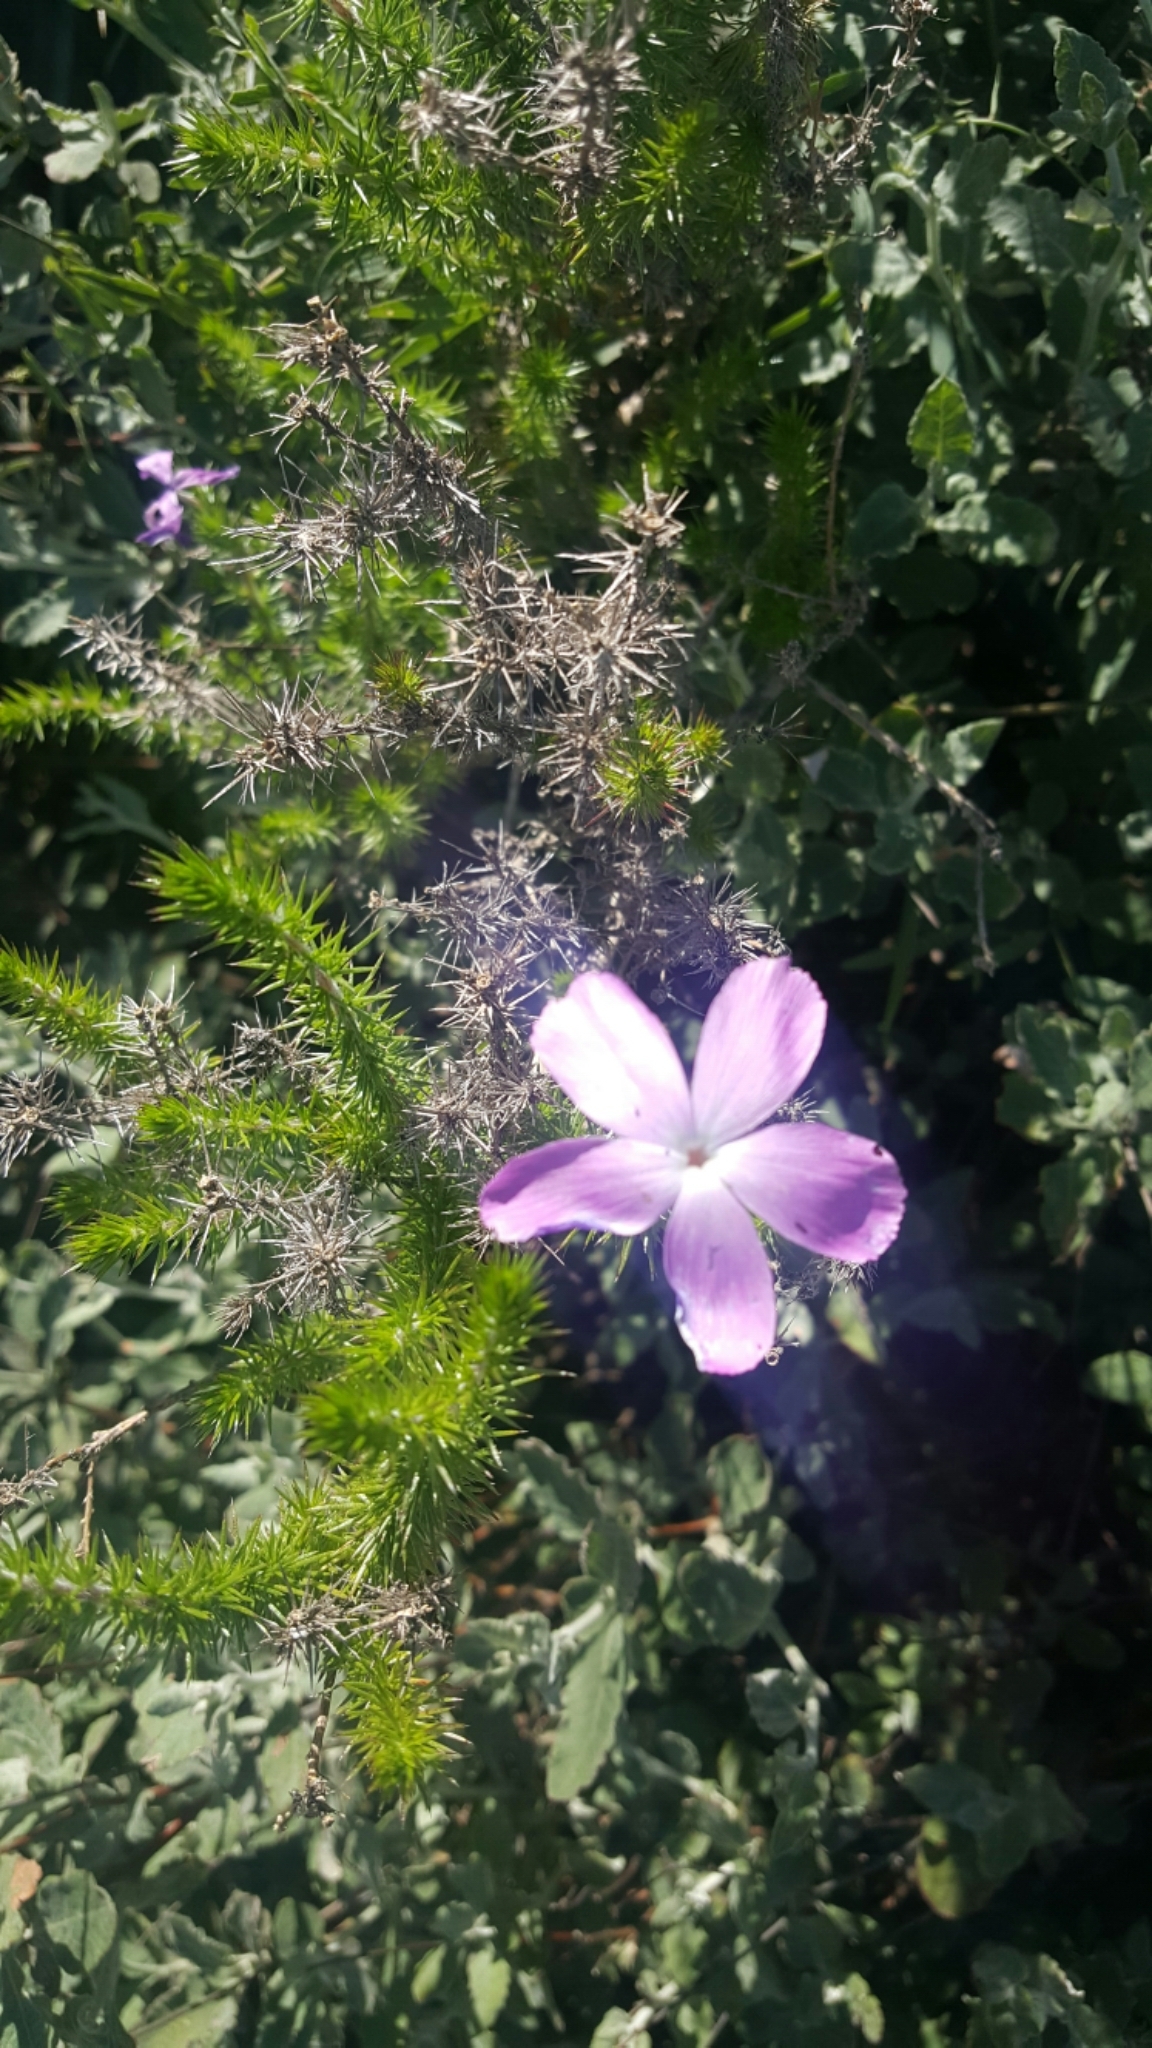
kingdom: Plantae
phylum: Tracheophyta
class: Magnoliopsida
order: Ericales
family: Polemoniaceae
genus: Linanthus
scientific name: Linanthus californicus
